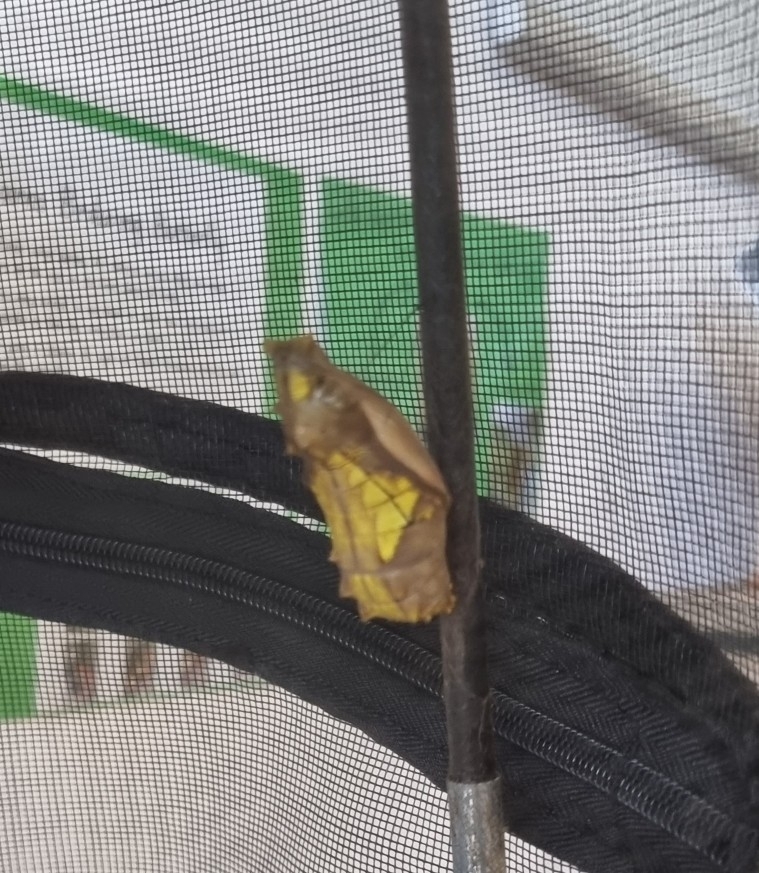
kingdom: Animalia
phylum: Arthropoda
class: Insecta
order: Lepidoptera
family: Papilionidae
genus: Ornithoptera
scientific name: Ornithoptera euphorion
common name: Cairns birdwing
